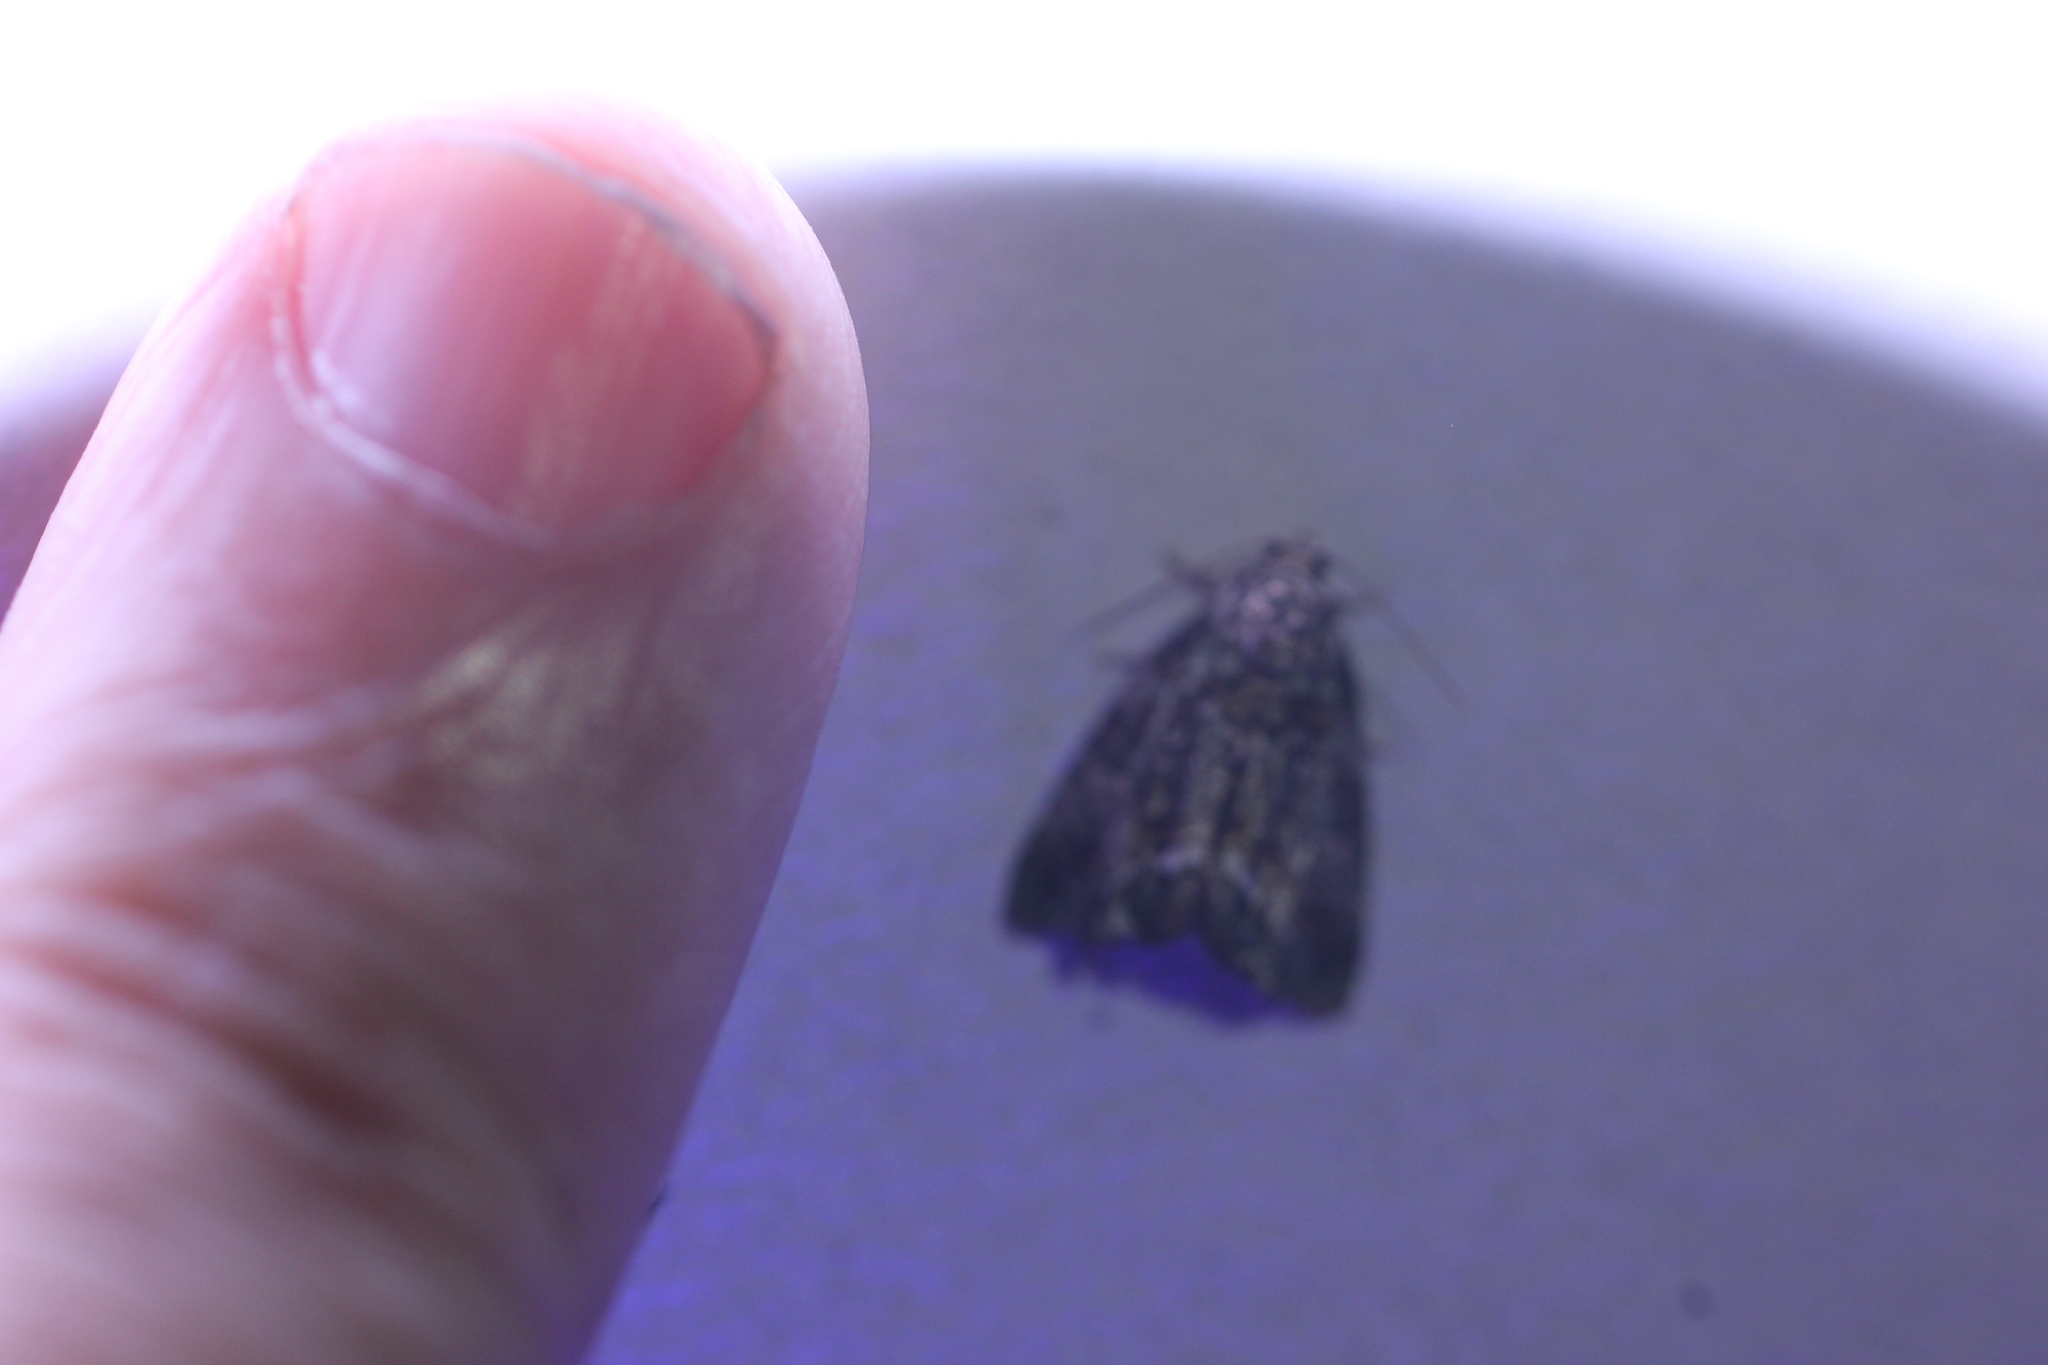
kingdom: Animalia
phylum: Arthropoda
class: Insecta
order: Lepidoptera
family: Noctuidae
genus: Lithacodia
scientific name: Lithacodia musta
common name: Small mossy glyph
